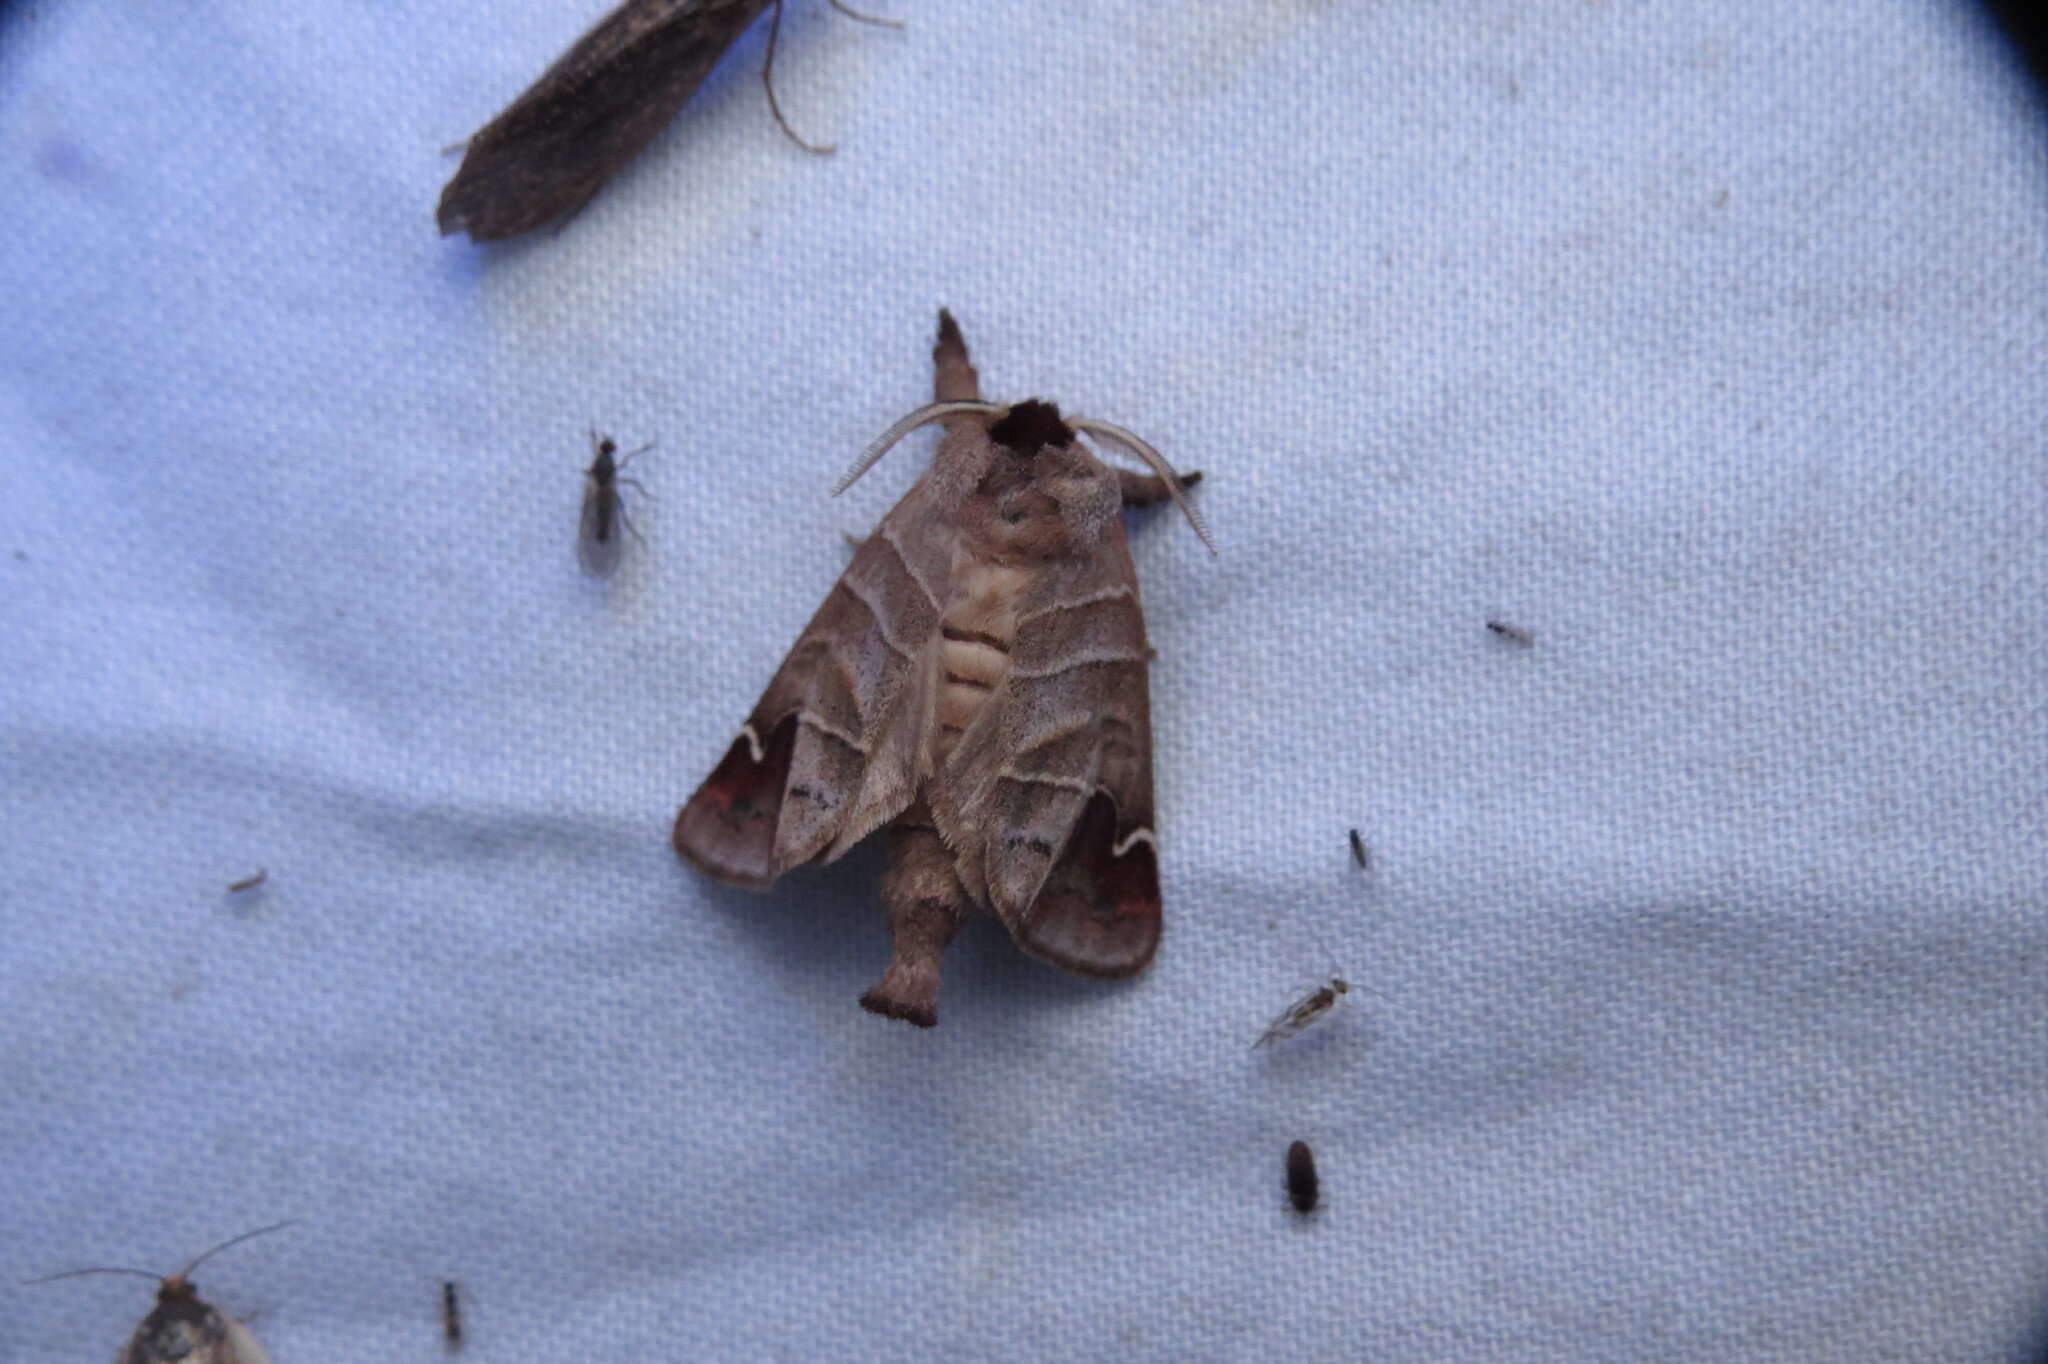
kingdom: Animalia
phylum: Arthropoda
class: Insecta
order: Lepidoptera
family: Notodontidae
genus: Clostera
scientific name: Clostera albosigma
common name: Sigmoid prominent
